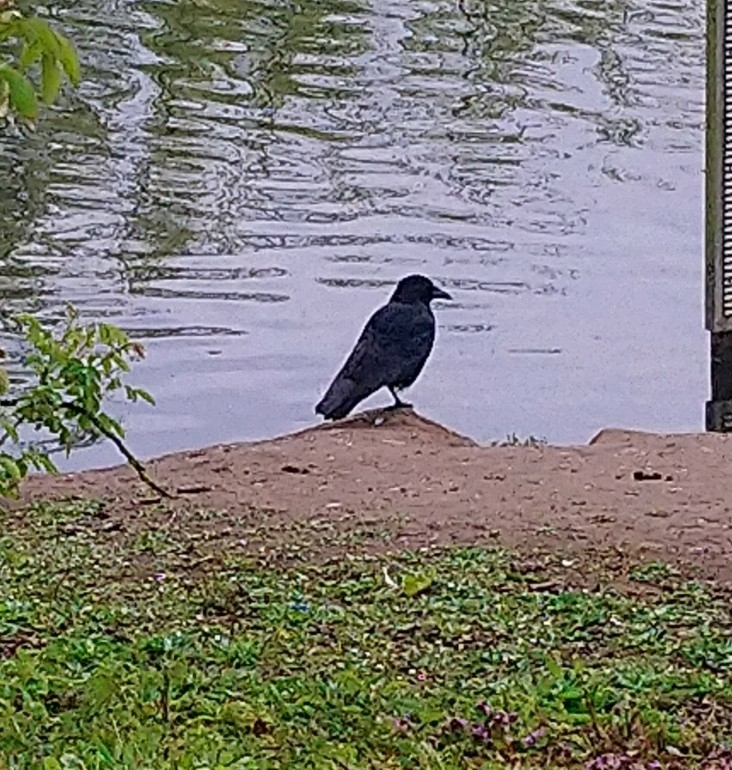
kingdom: Animalia
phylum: Chordata
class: Aves
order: Passeriformes
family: Corvidae
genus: Corvus
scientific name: Corvus corone
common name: Carrion crow
